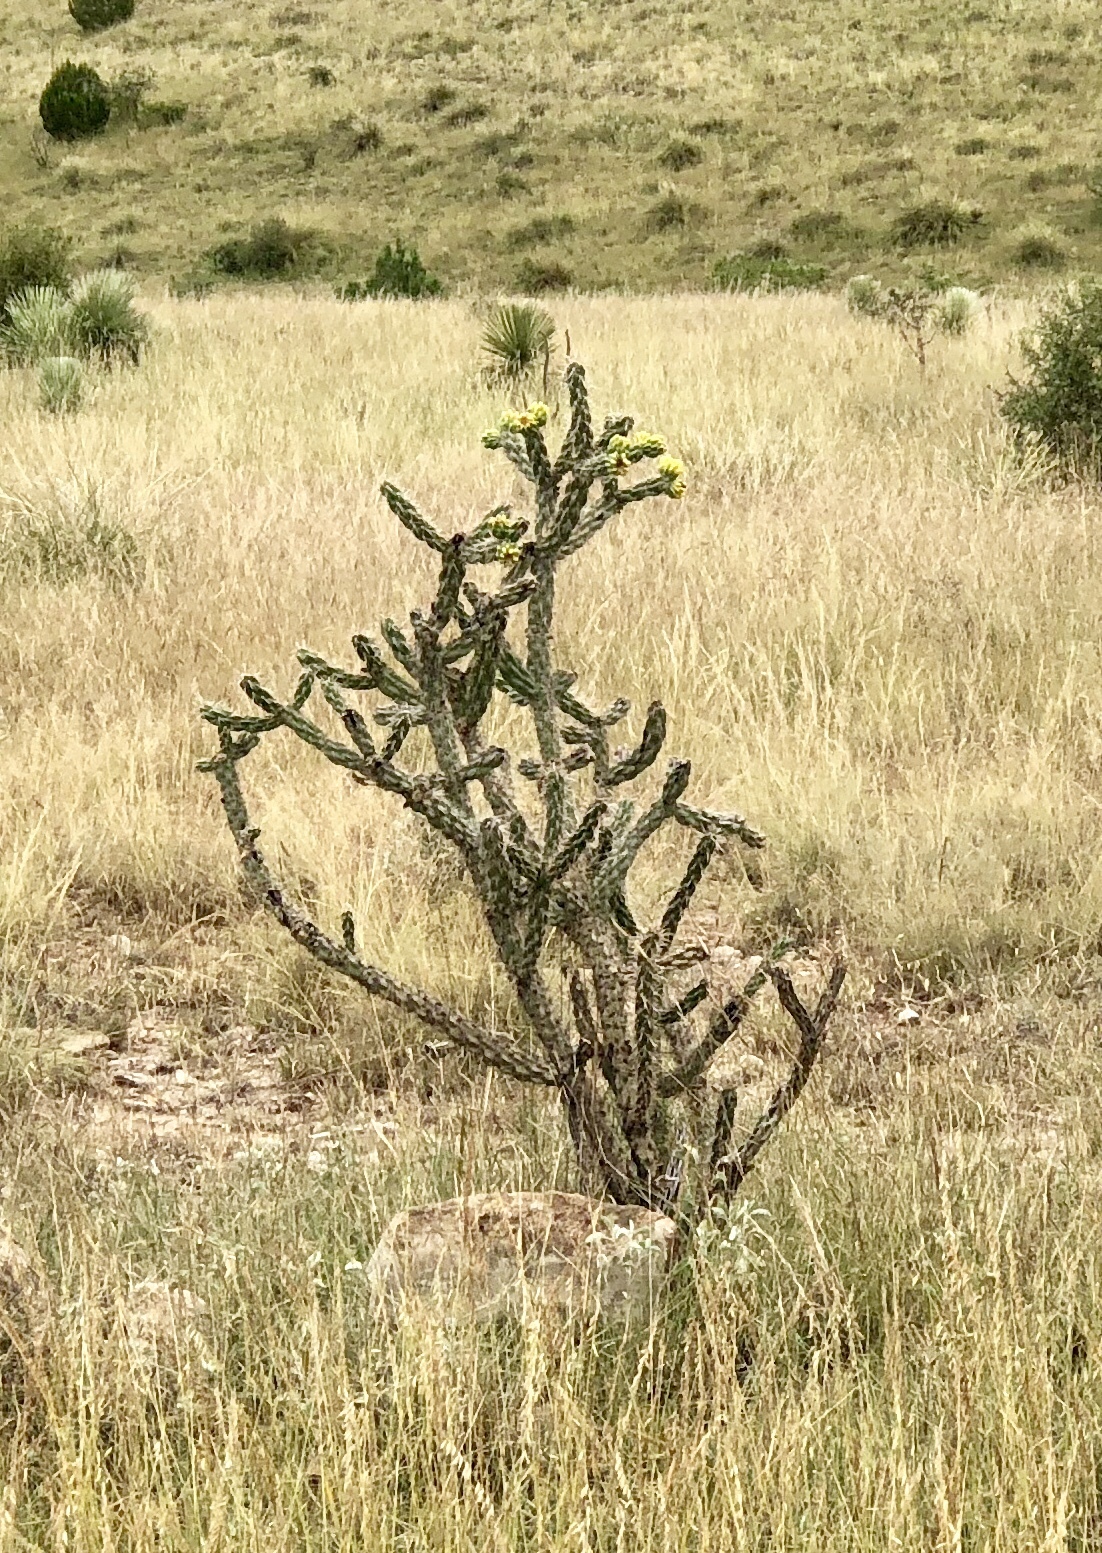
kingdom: Plantae
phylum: Tracheophyta
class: Magnoliopsida
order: Caryophyllales
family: Cactaceae
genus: Cylindropuntia
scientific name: Cylindropuntia imbricata
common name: Candelabrum cactus
